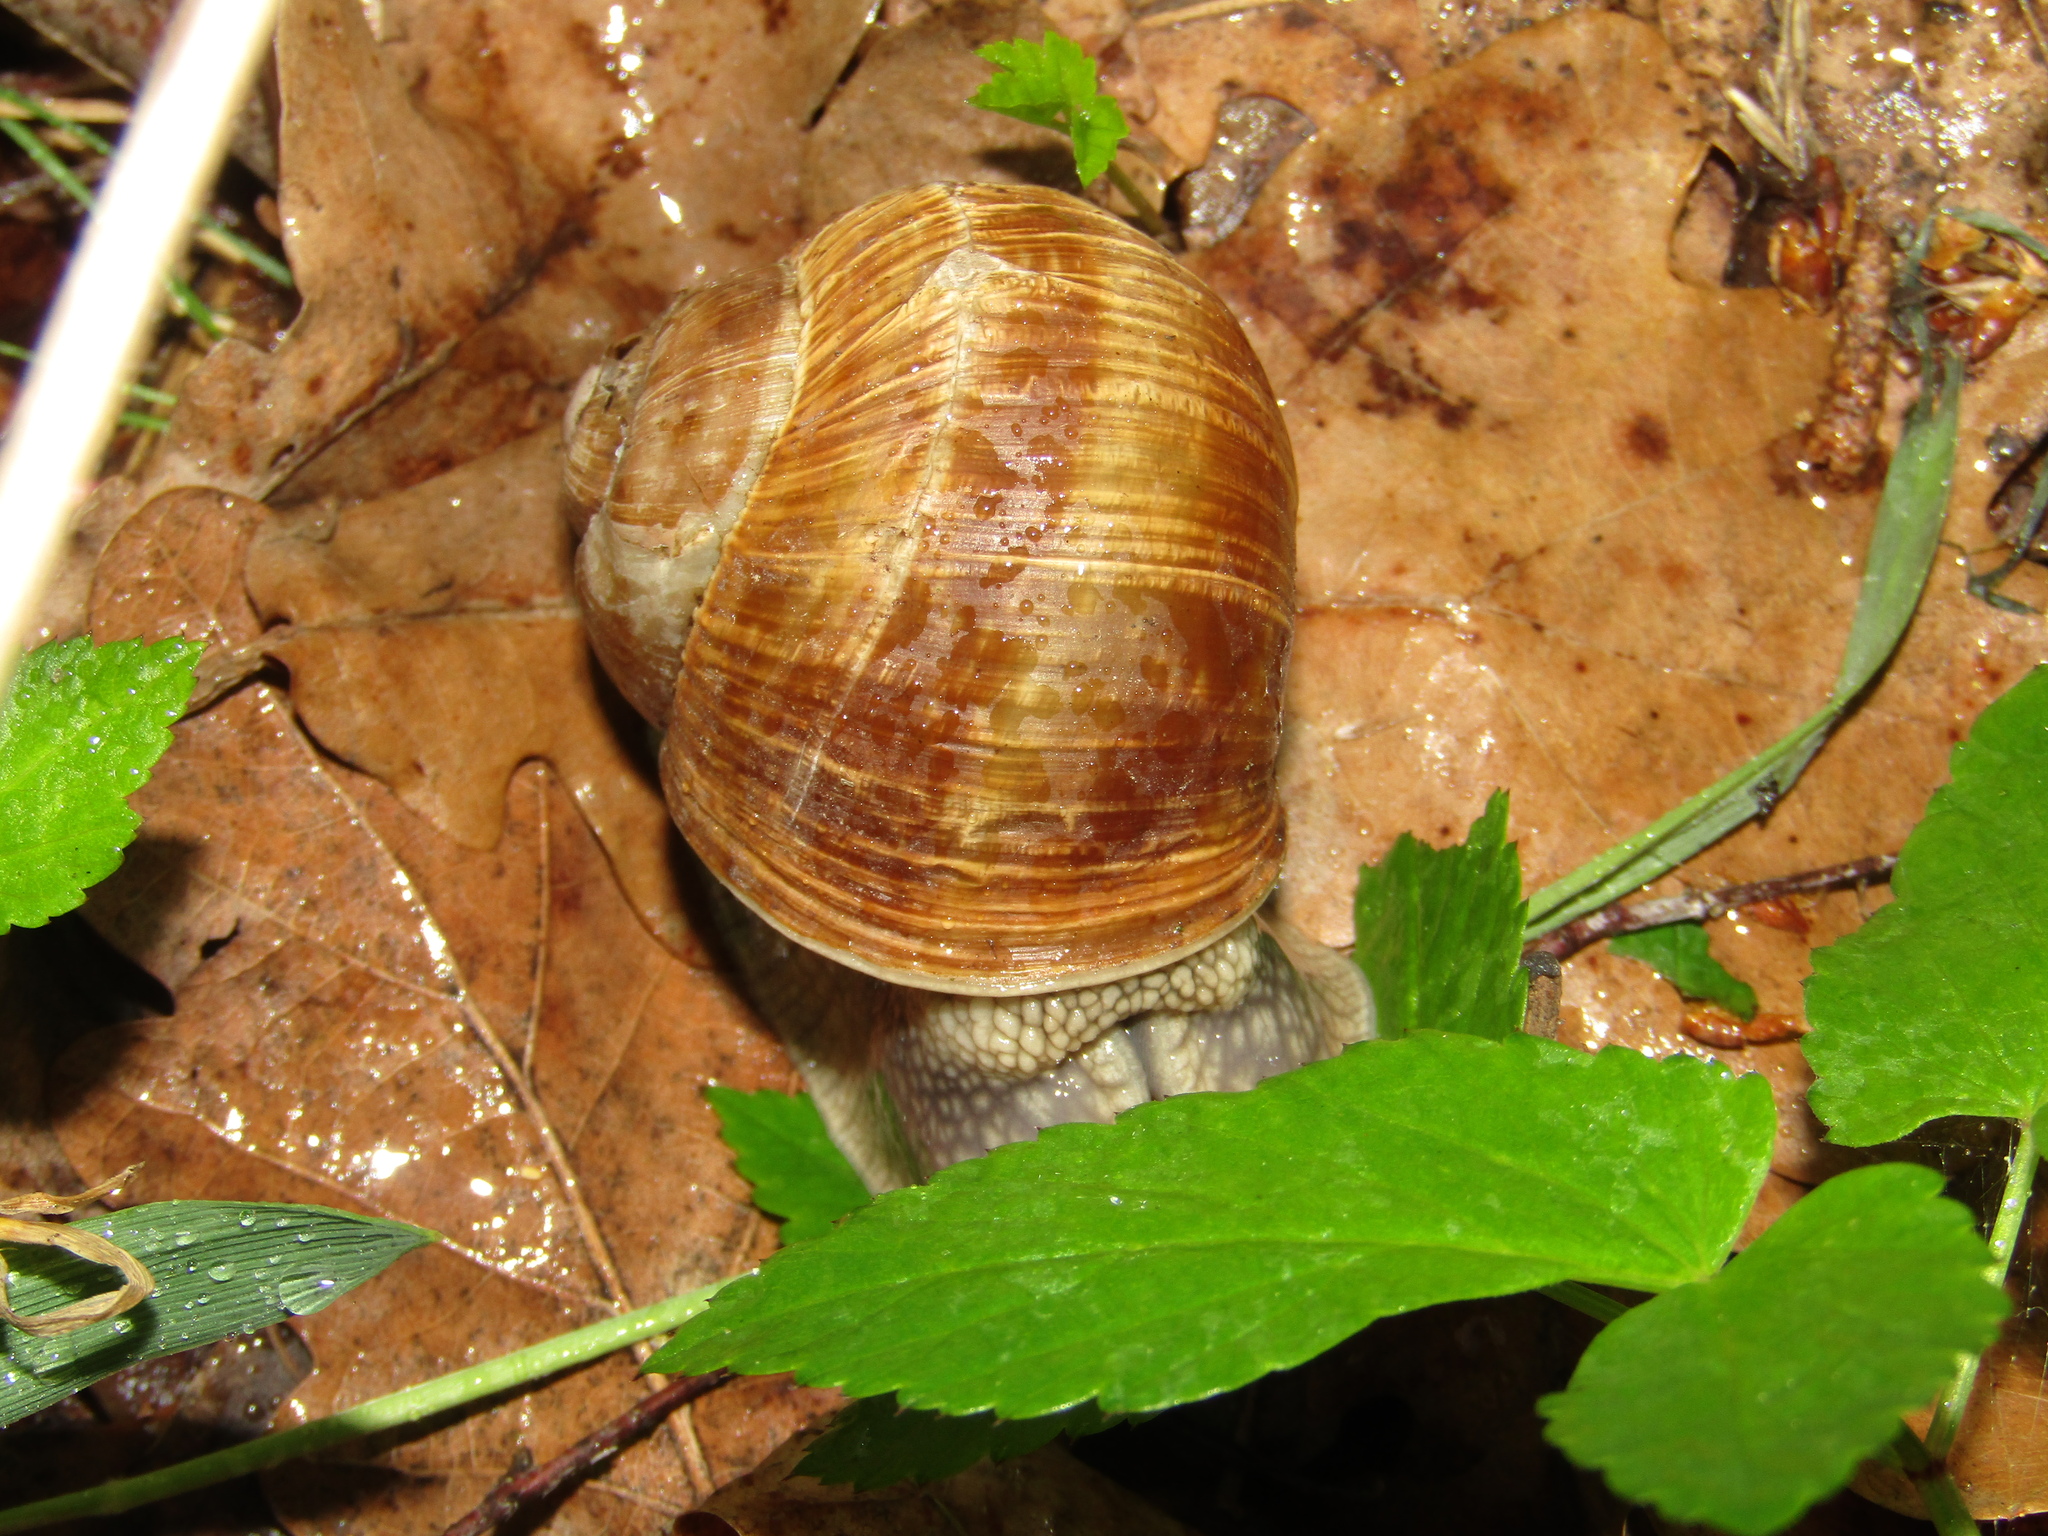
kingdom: Animalia
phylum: Mollusca
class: Gastropoda
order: Stylommatophora
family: Helicidae
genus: Helix
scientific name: Helix pomatia
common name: Roman snail
